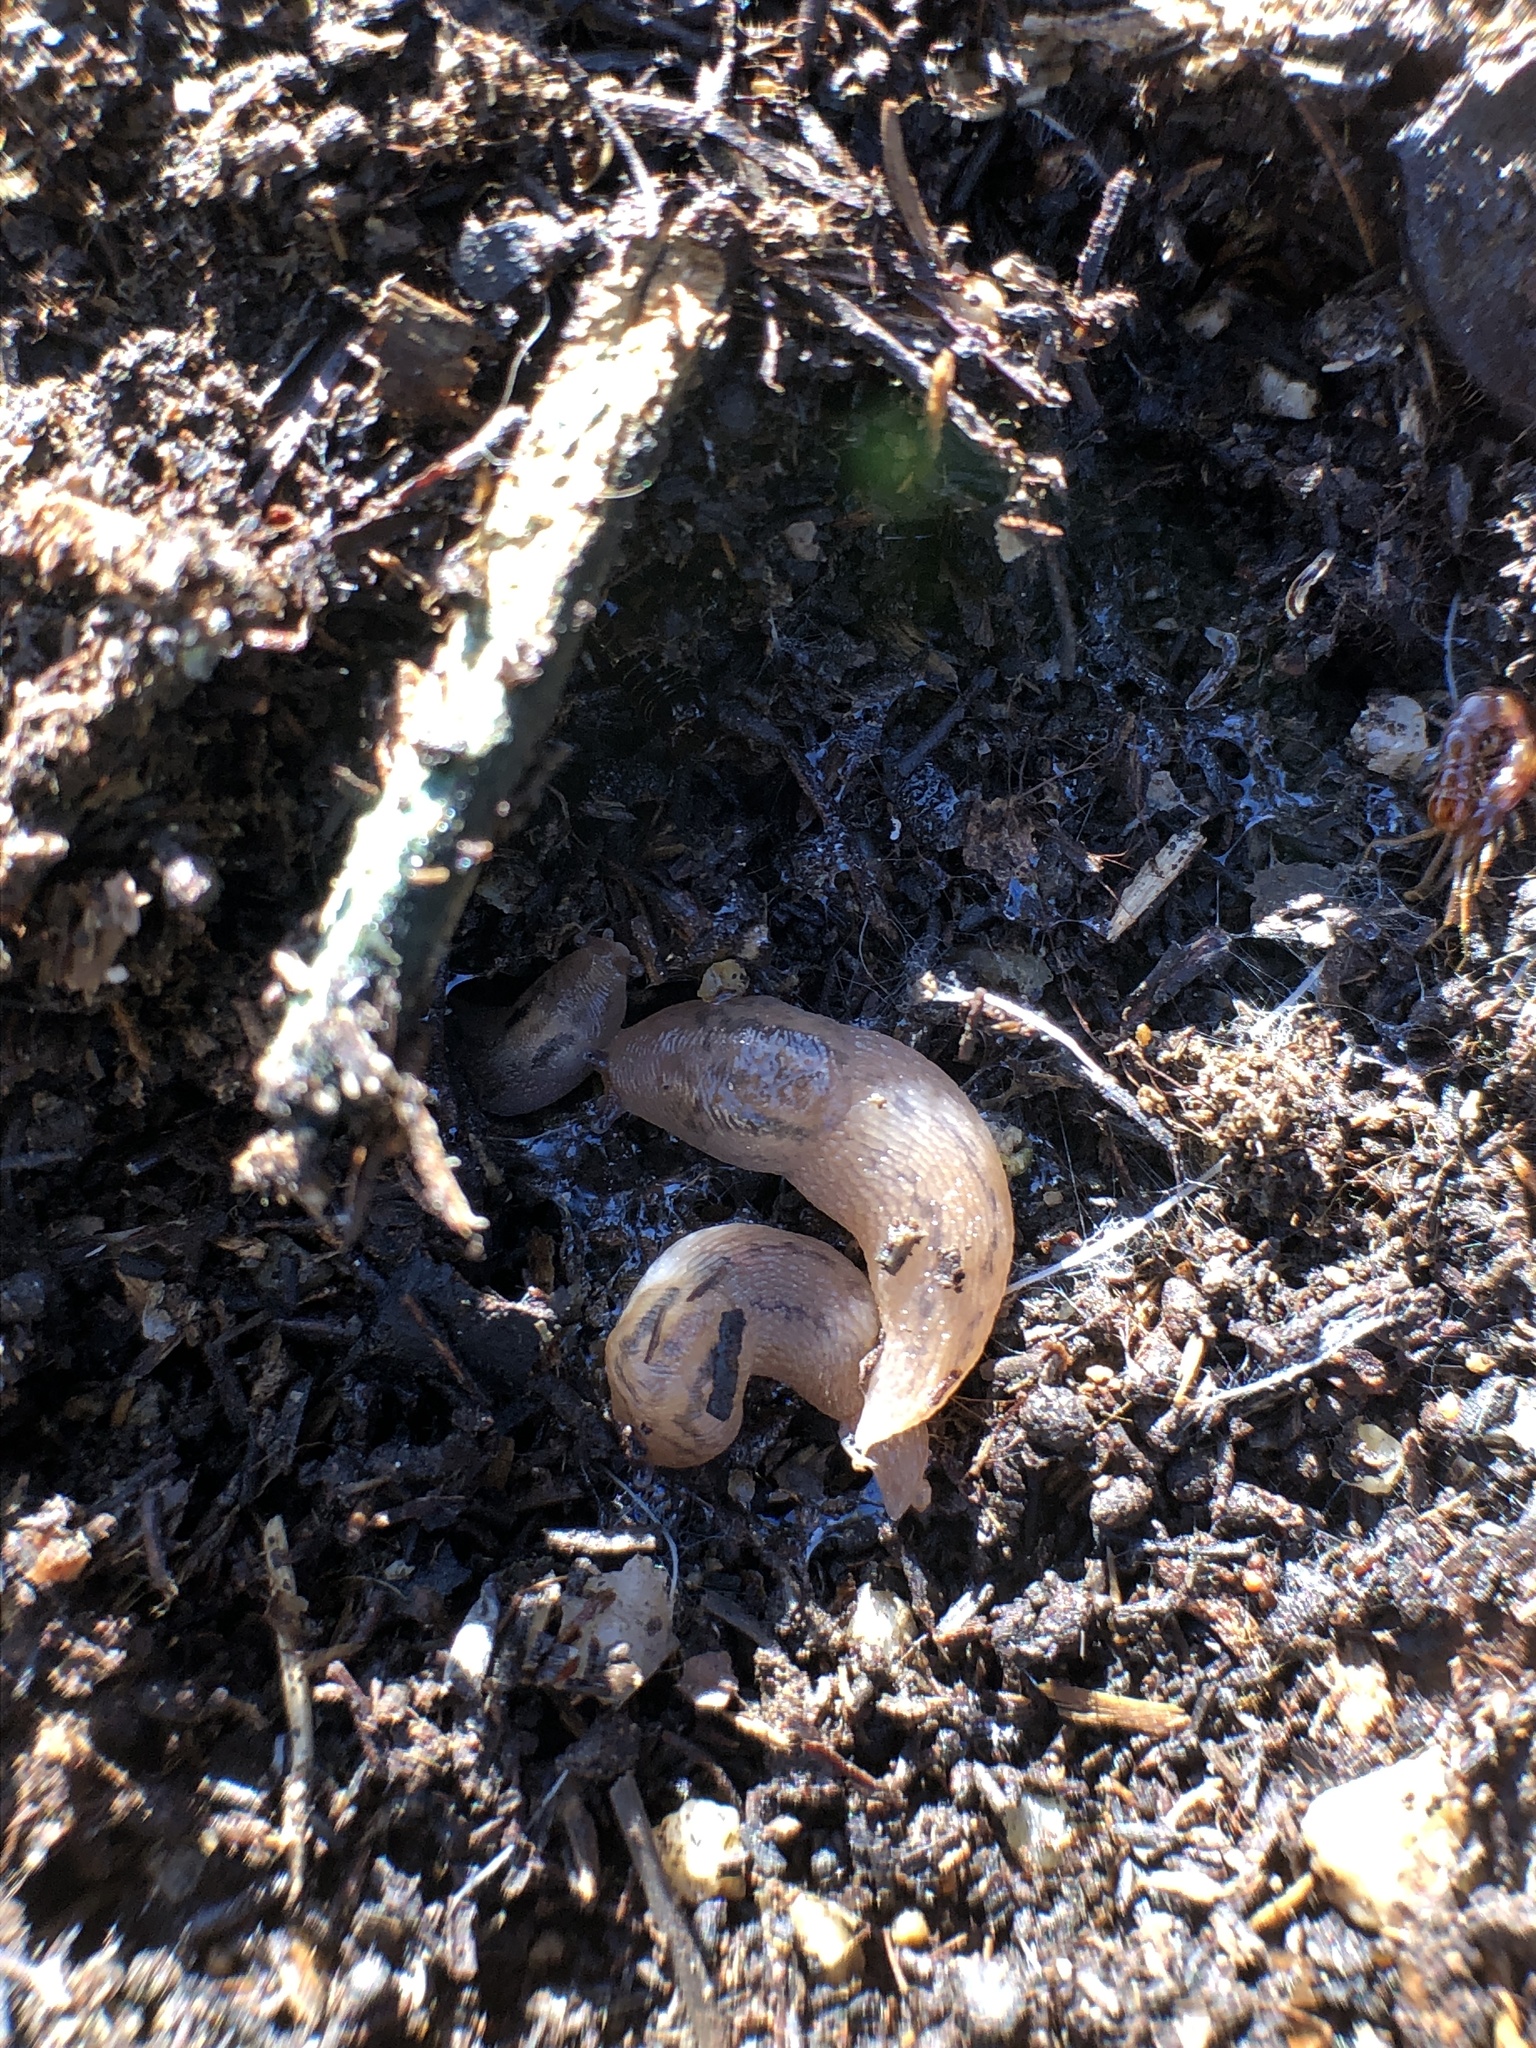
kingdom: Animalia
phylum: Mollusca
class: Gastropoda
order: Stylommatophora
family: Limacidae
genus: Ambigolimax
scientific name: Ambigolimax
